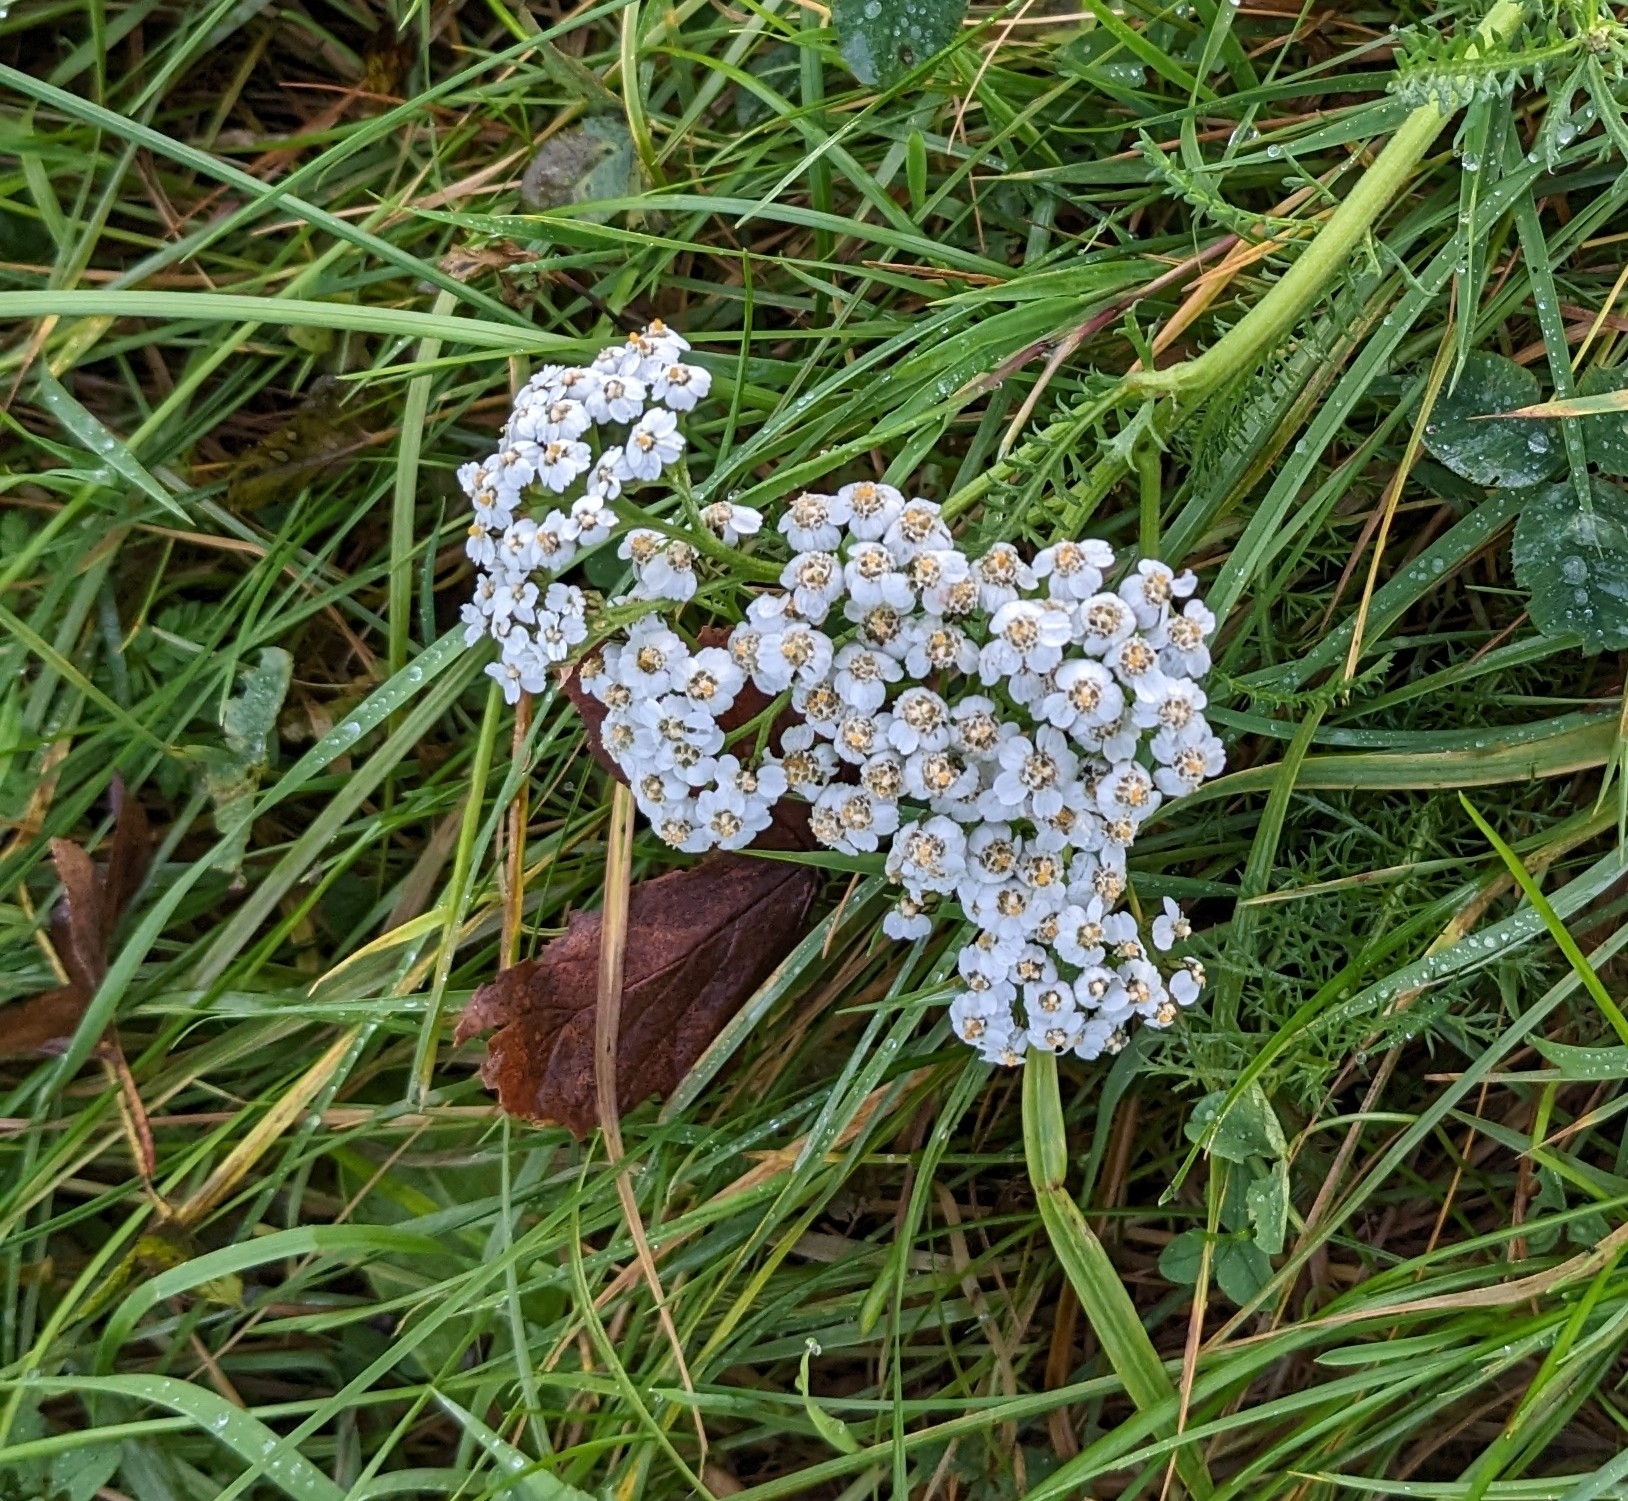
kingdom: Plantae
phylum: Tracheophyta
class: Magnoliopsida
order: Asterales
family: Asteraceae
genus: Achillea
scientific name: Achillea millefolium
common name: Yarrow
